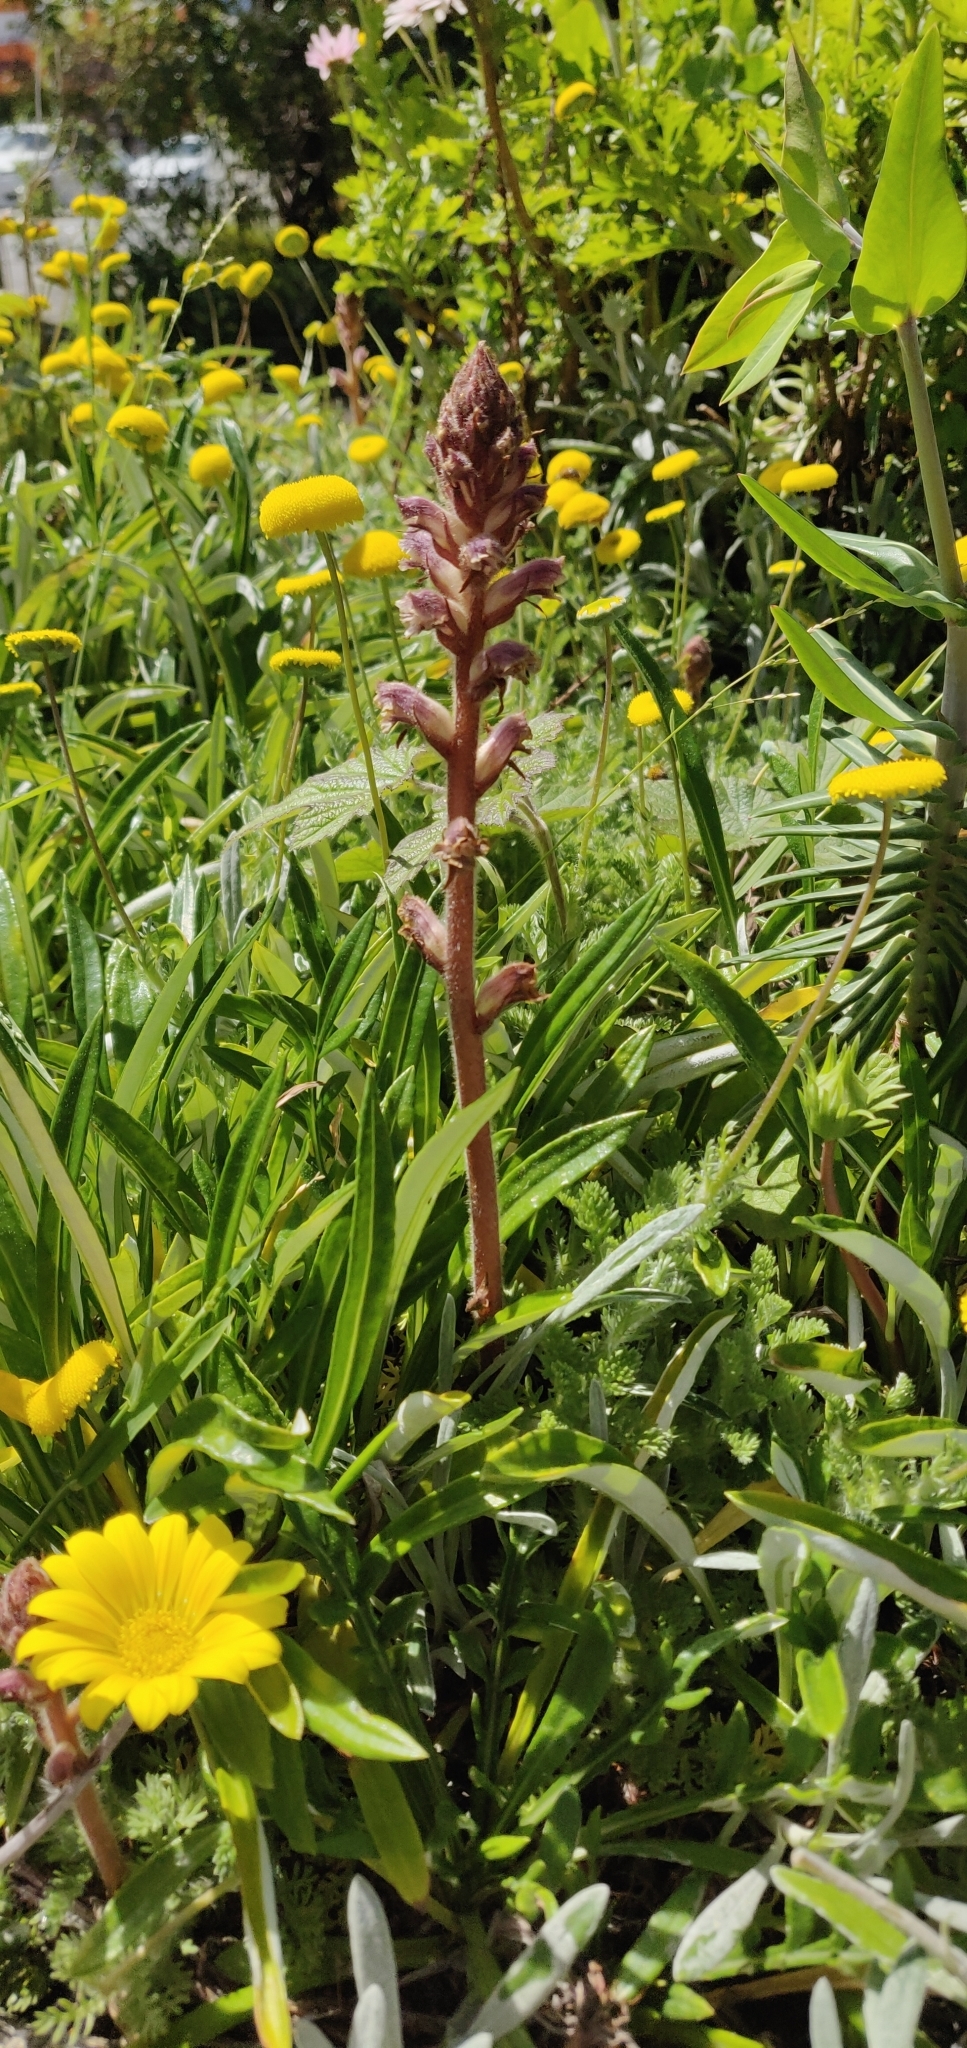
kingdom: Plantae
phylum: Tracheophyta
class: Magnoliopsida
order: Lamiales
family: Orobanchaceae
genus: Orobanche
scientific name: Orobanche minor
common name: Common broomrape
